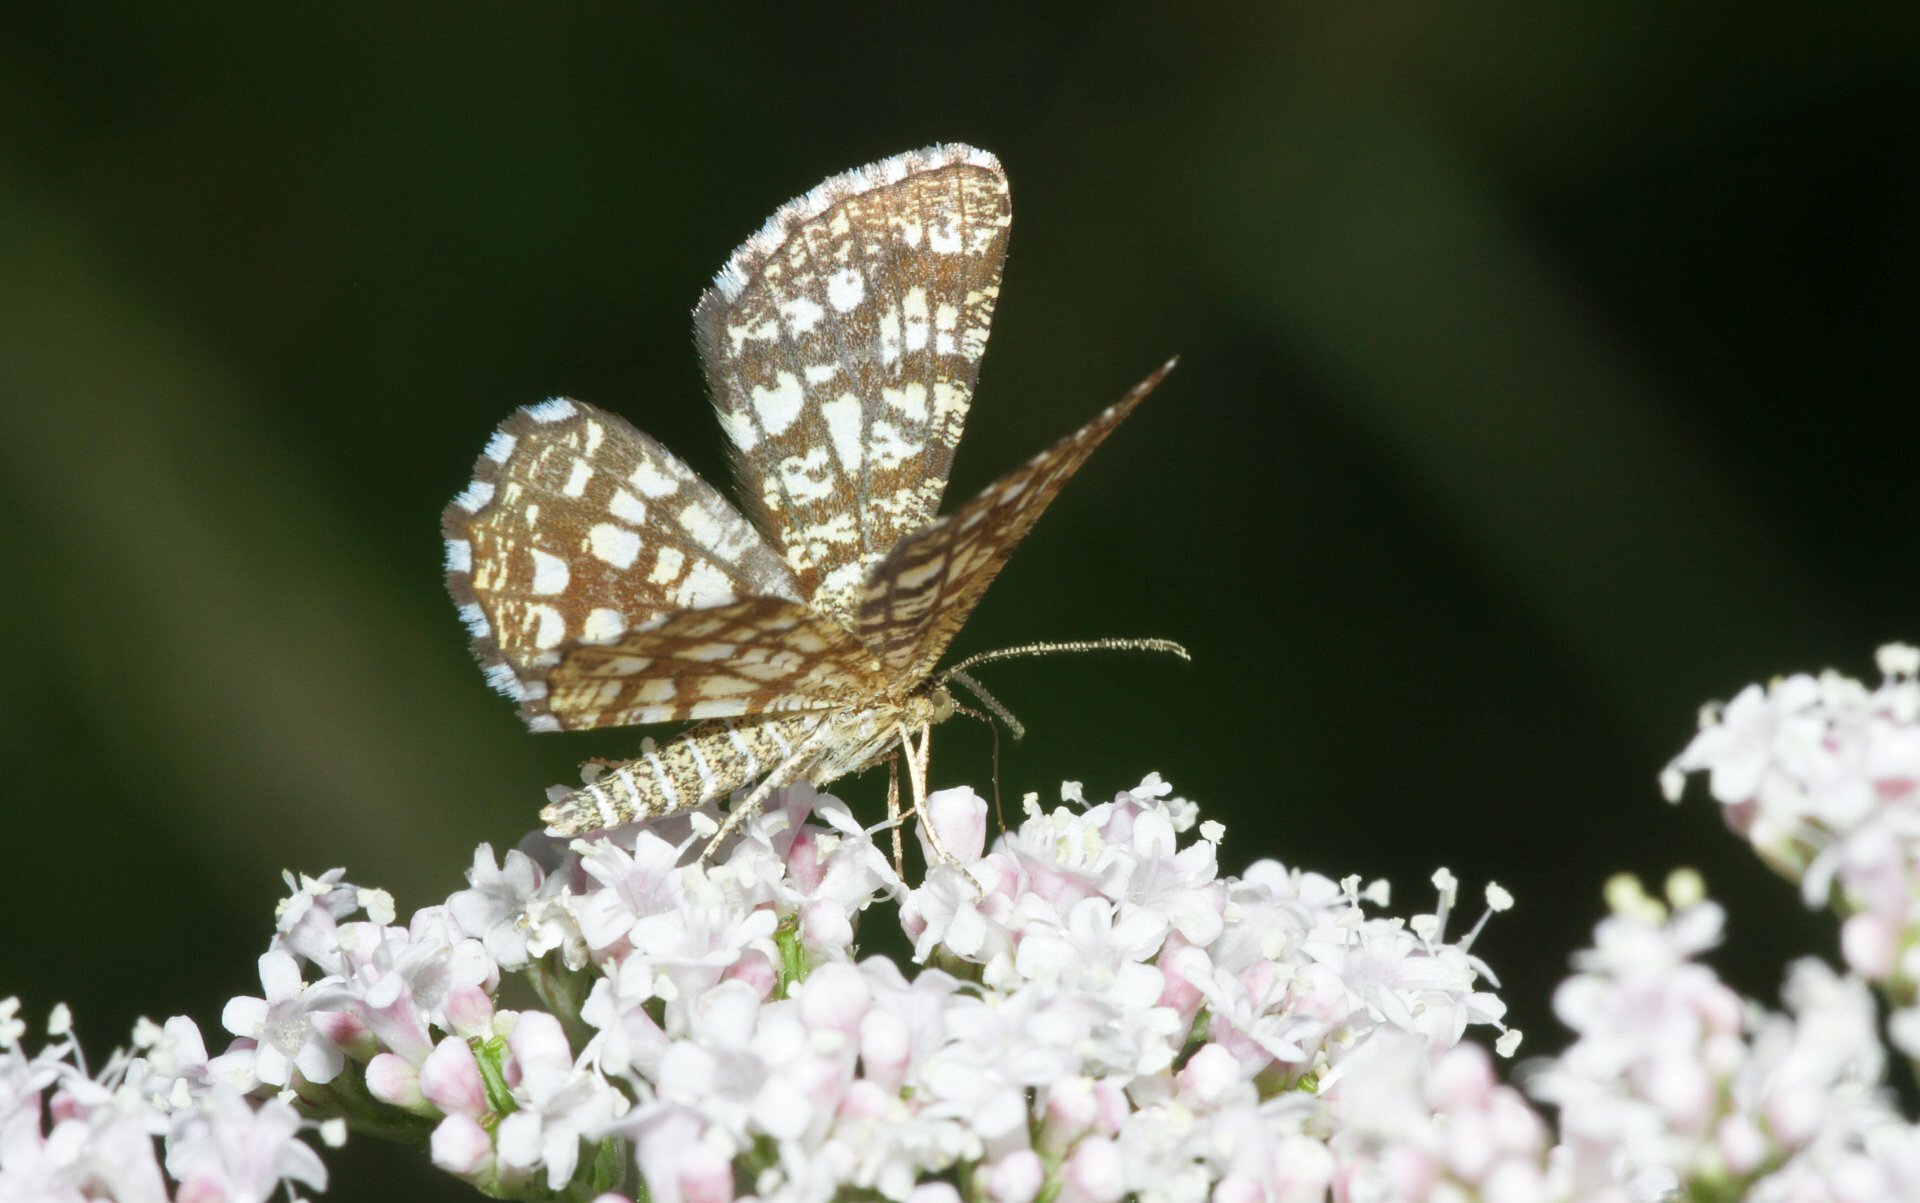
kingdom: Animalia
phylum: Arthropoda
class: Insecta
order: Lepidoptera
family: Geometridae
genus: Chiasmia
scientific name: Chiasmia clathrata
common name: Latticed heath
